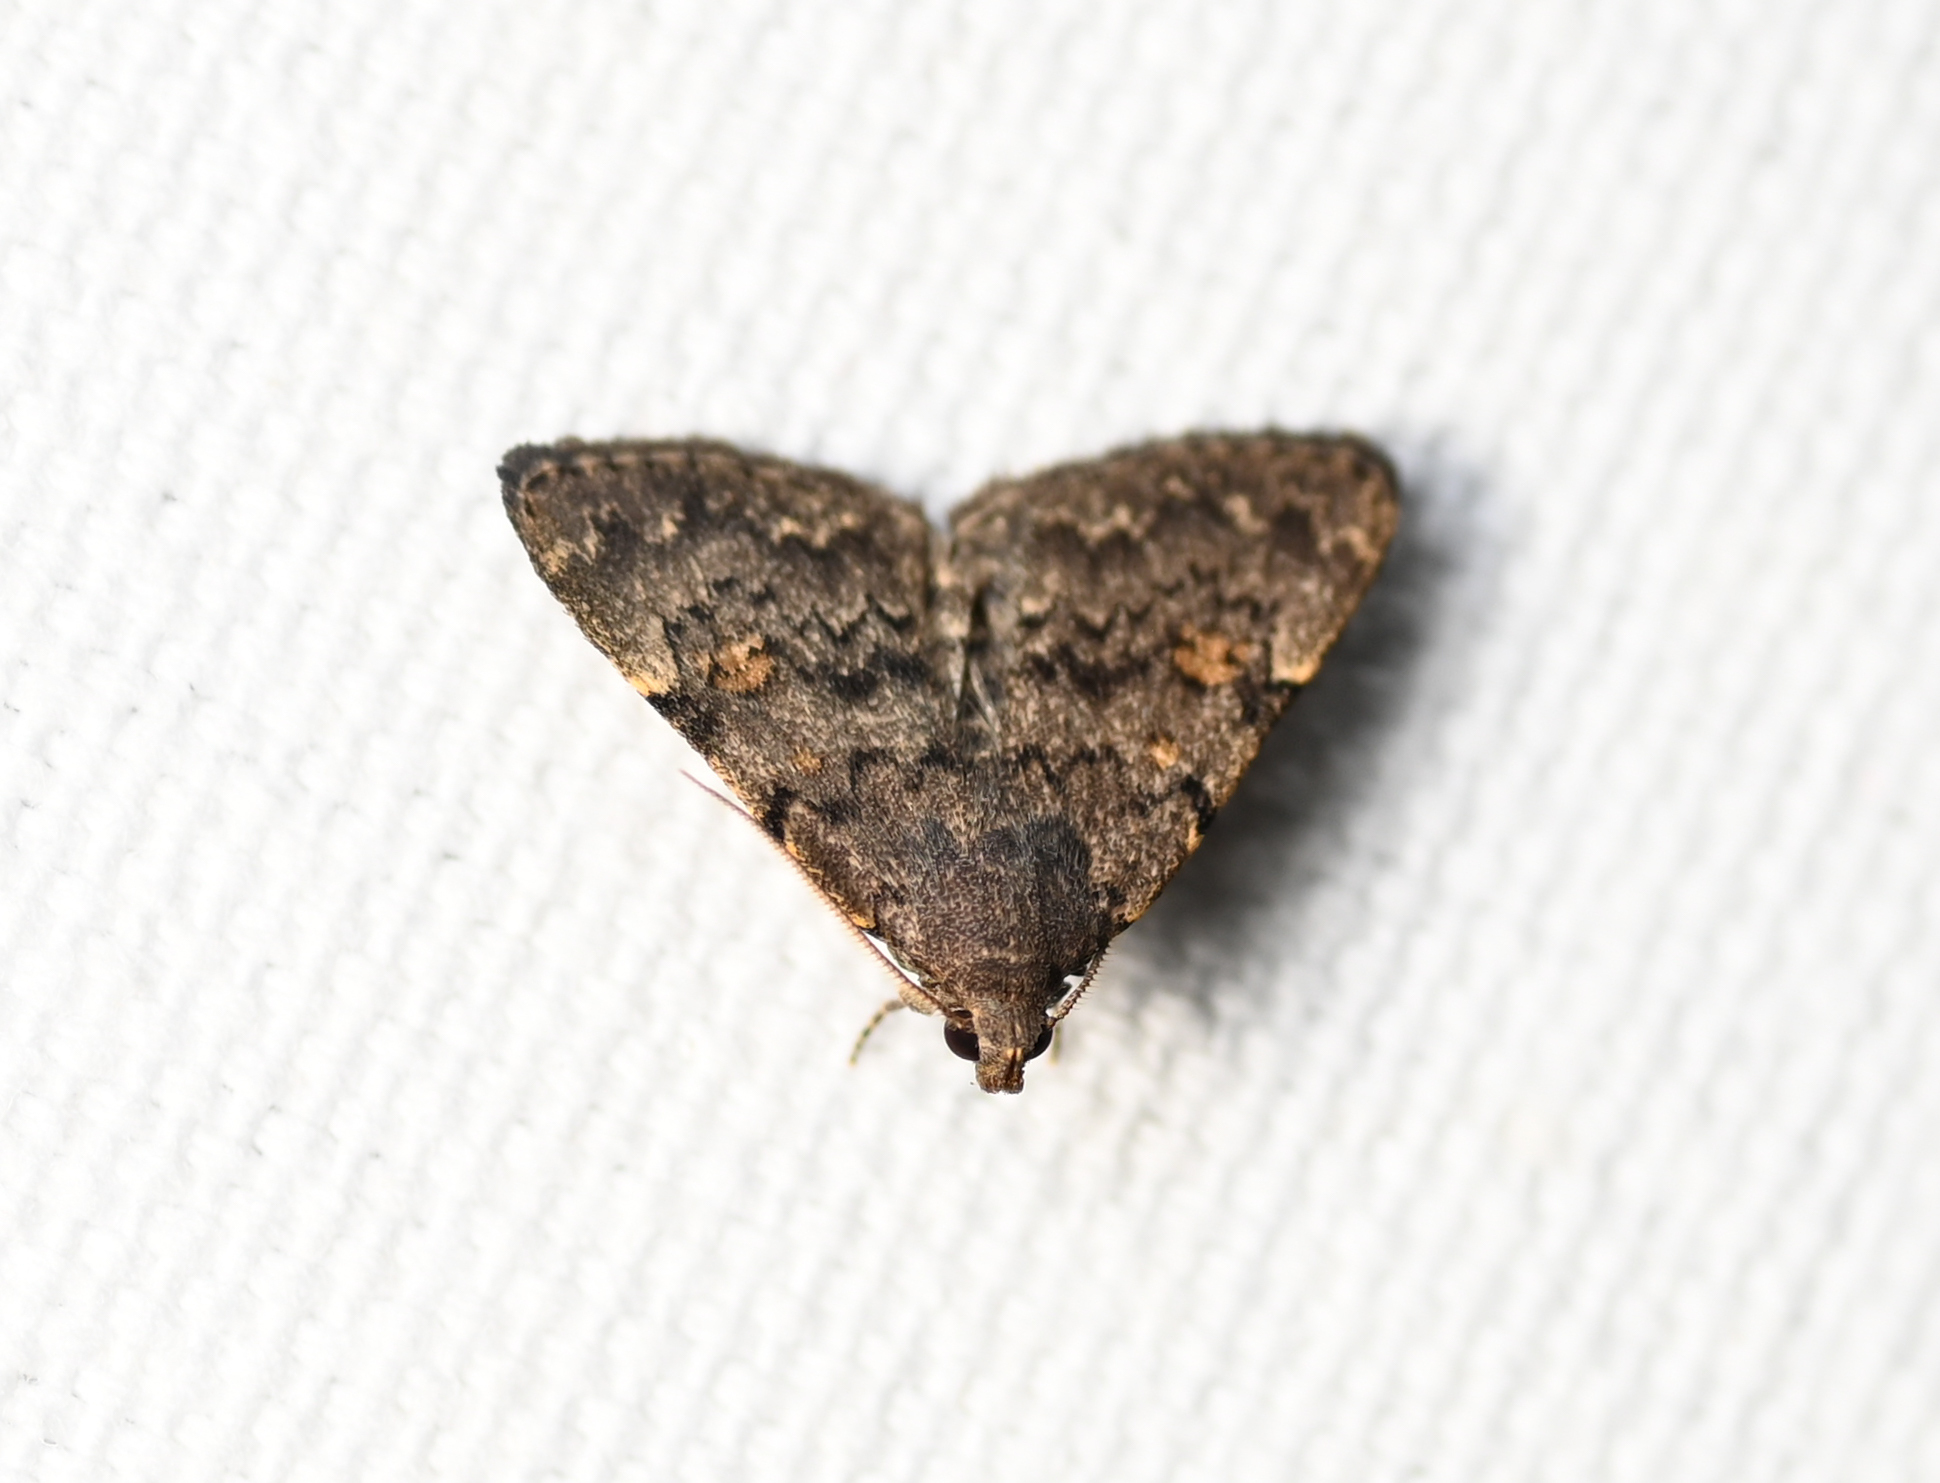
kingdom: Animalia
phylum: Arthropoda
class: Insecta
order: Lepidoptera
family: Erebidae
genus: Idia
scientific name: Idia aemula
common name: Common idia moth
